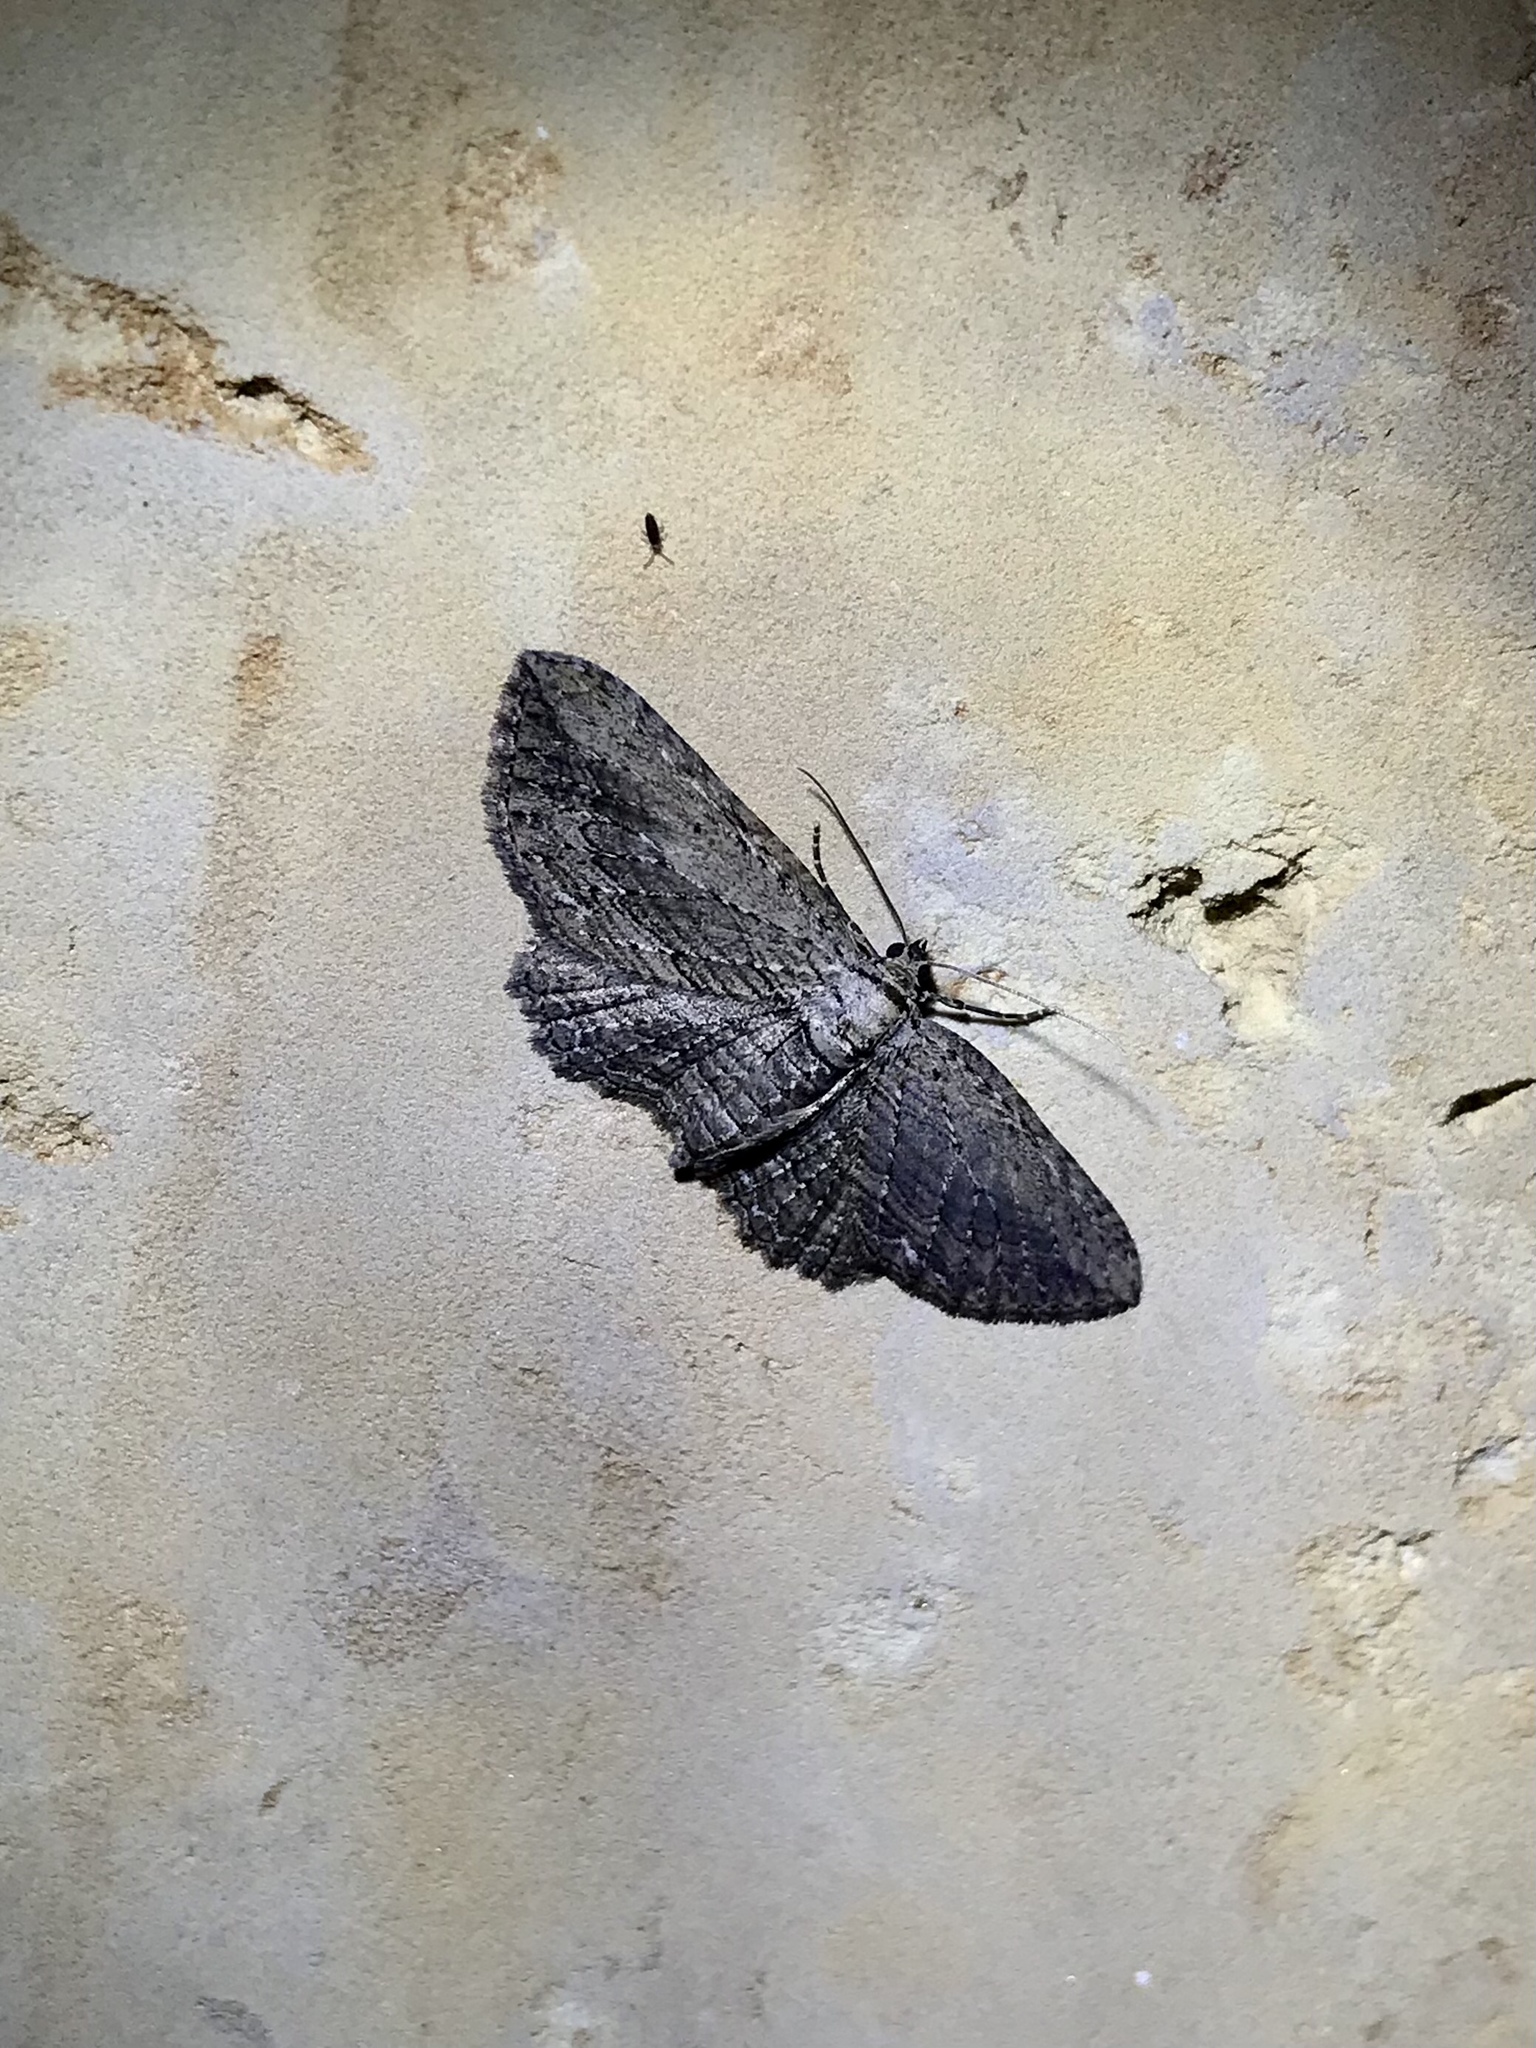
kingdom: Animalia
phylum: Arthropoda
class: Insecta
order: Lepidoptera
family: Geometridae
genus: Horisme
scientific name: Horisme intestinata
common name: Brown bark carpet
